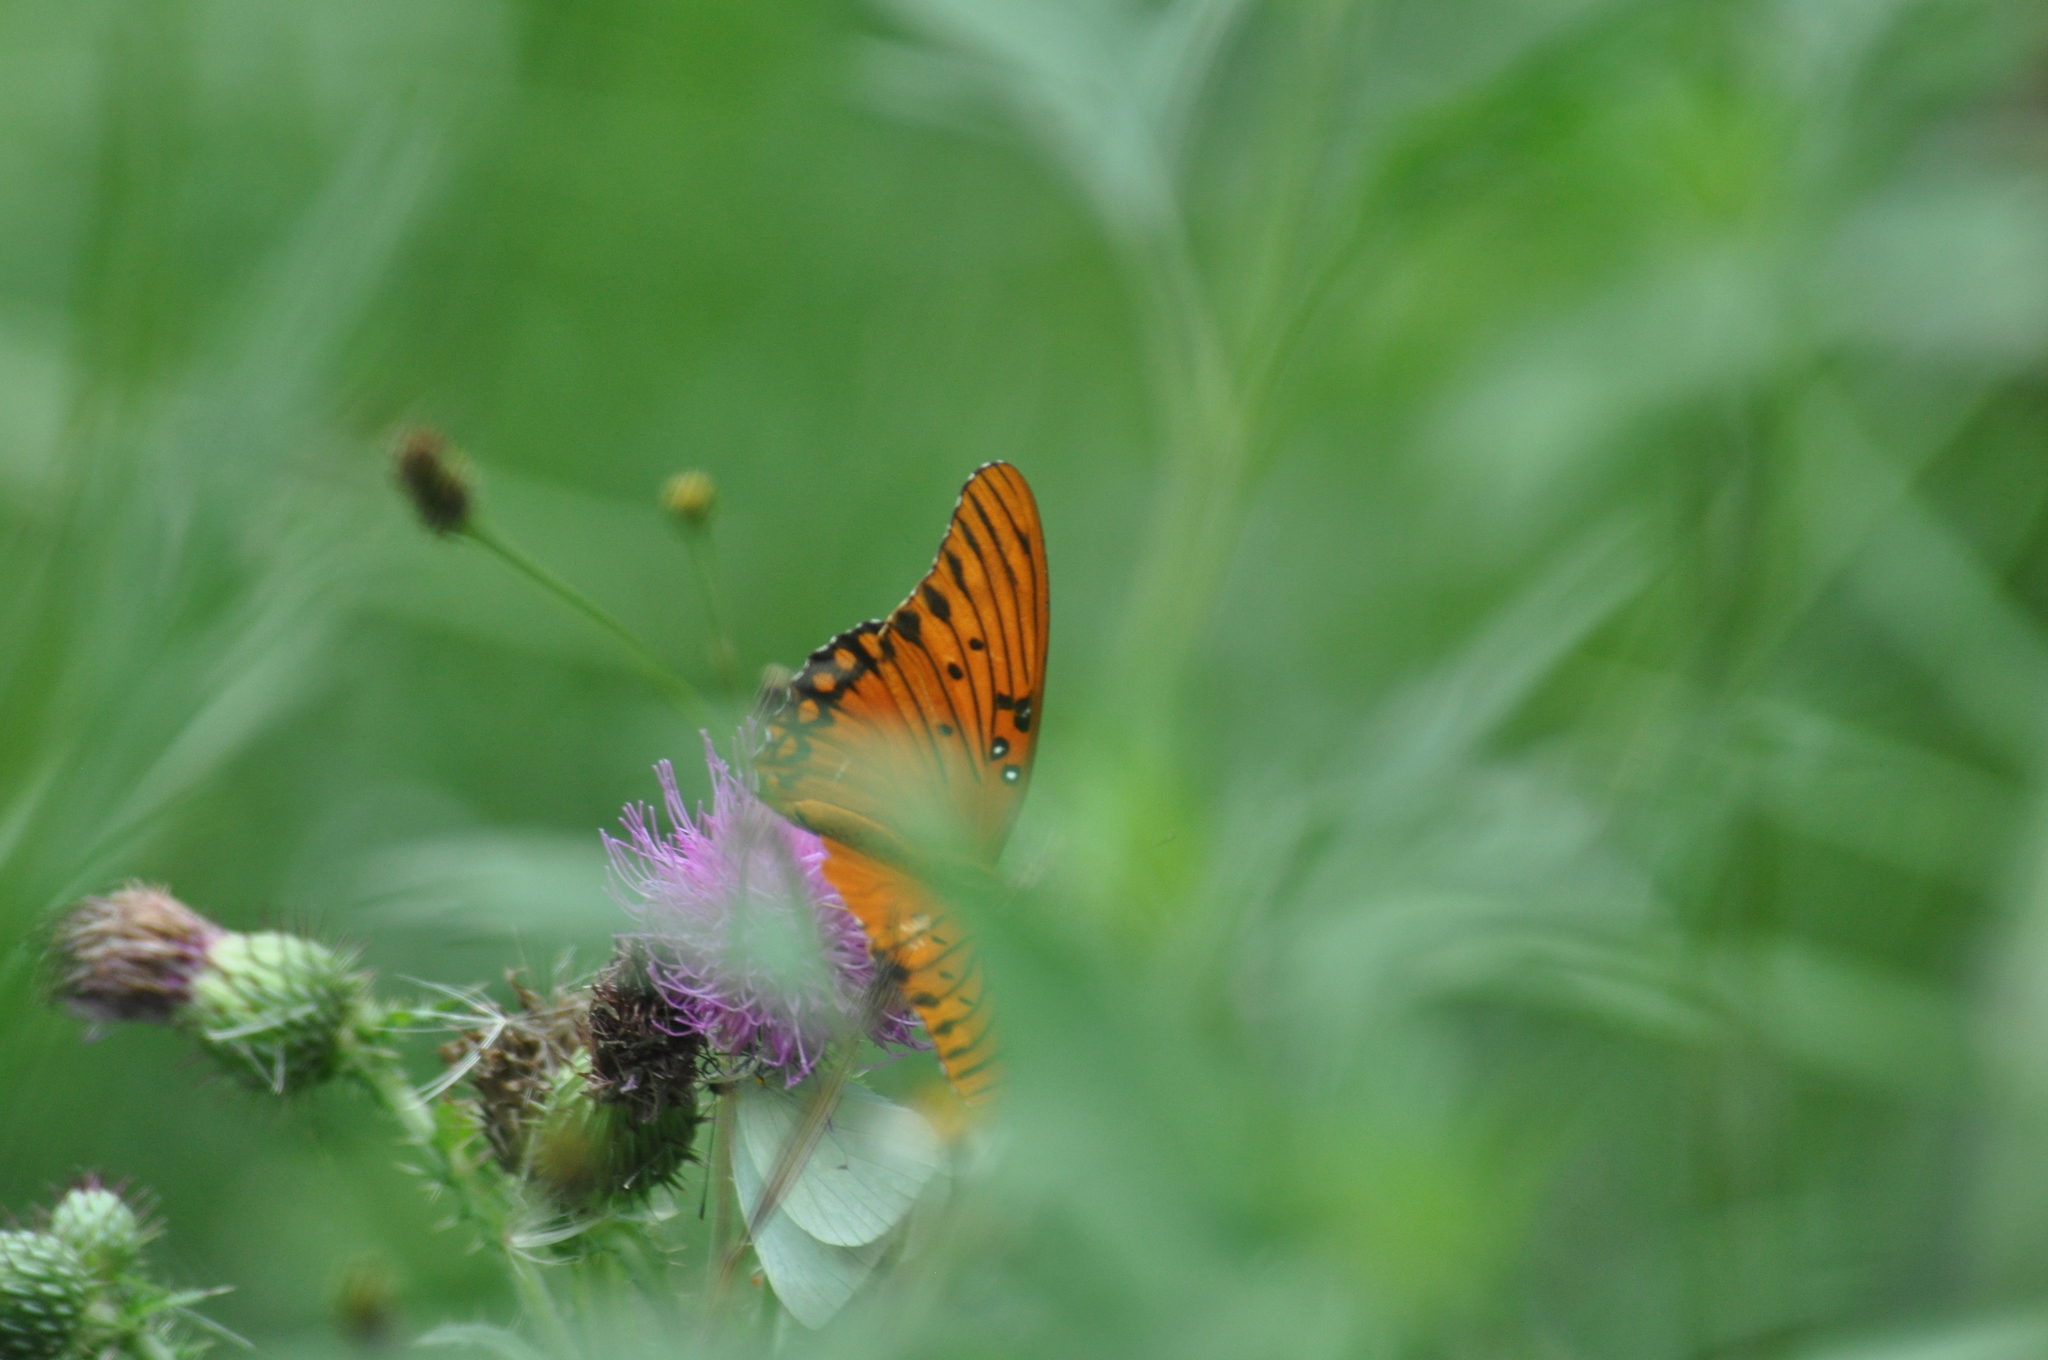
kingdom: Animalia
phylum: Arthropoda
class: Insecta
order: Lepidoptera
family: Nymphalidae
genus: Dione
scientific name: Dione vanillae
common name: Gulf fritillary
